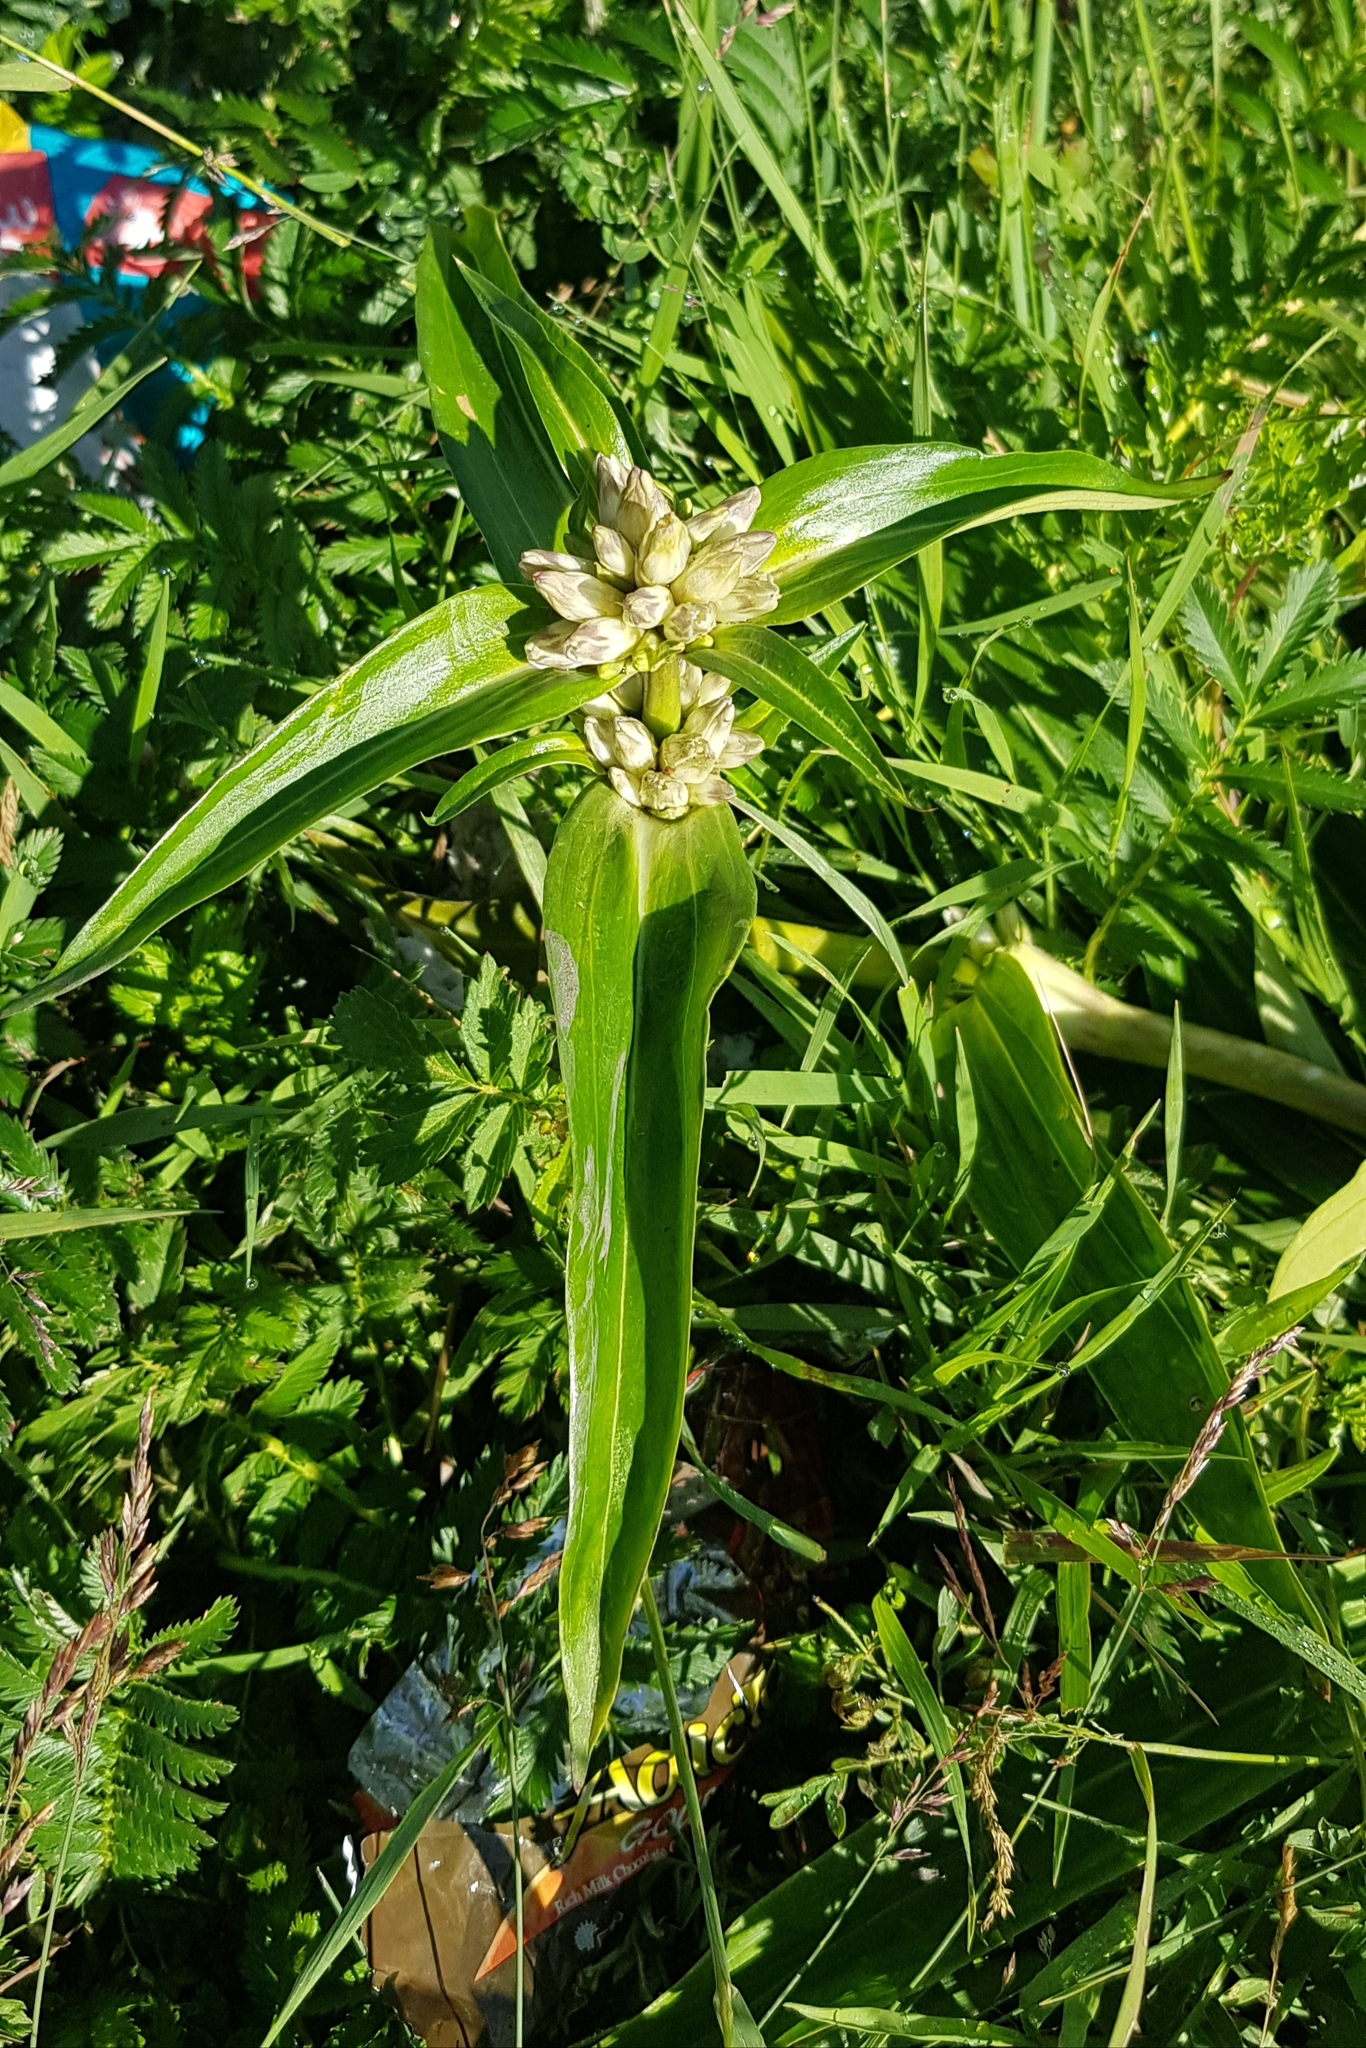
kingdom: Plantae
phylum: Tracheophyta
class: Magnoliopsida
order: Gentianales
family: Gentianaceae
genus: Gentiana
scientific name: Gentiana macrophylla
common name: Large-leaf gentian
